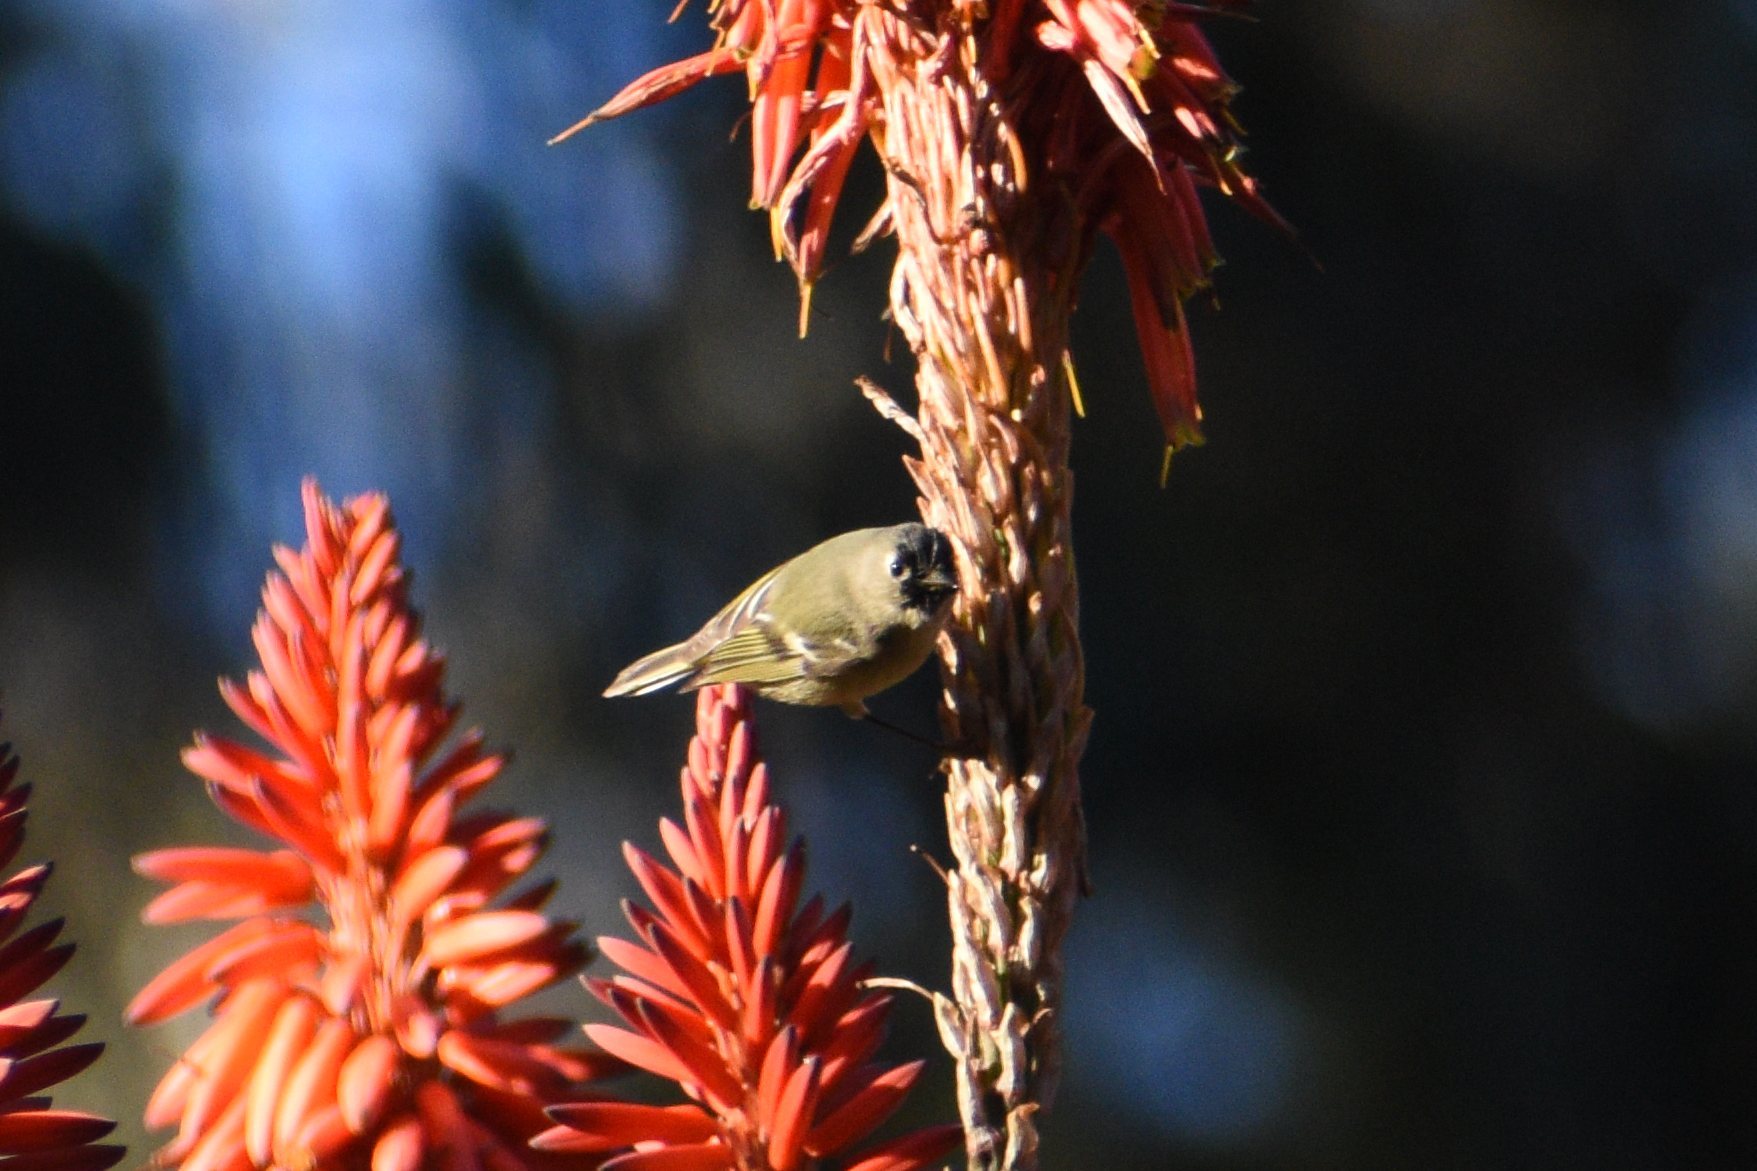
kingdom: Animalia
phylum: Chordata
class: Aves
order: Passeriformes
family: Regulidae
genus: Regulus
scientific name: Regulus calendula
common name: Ruby-crowned kinglet
